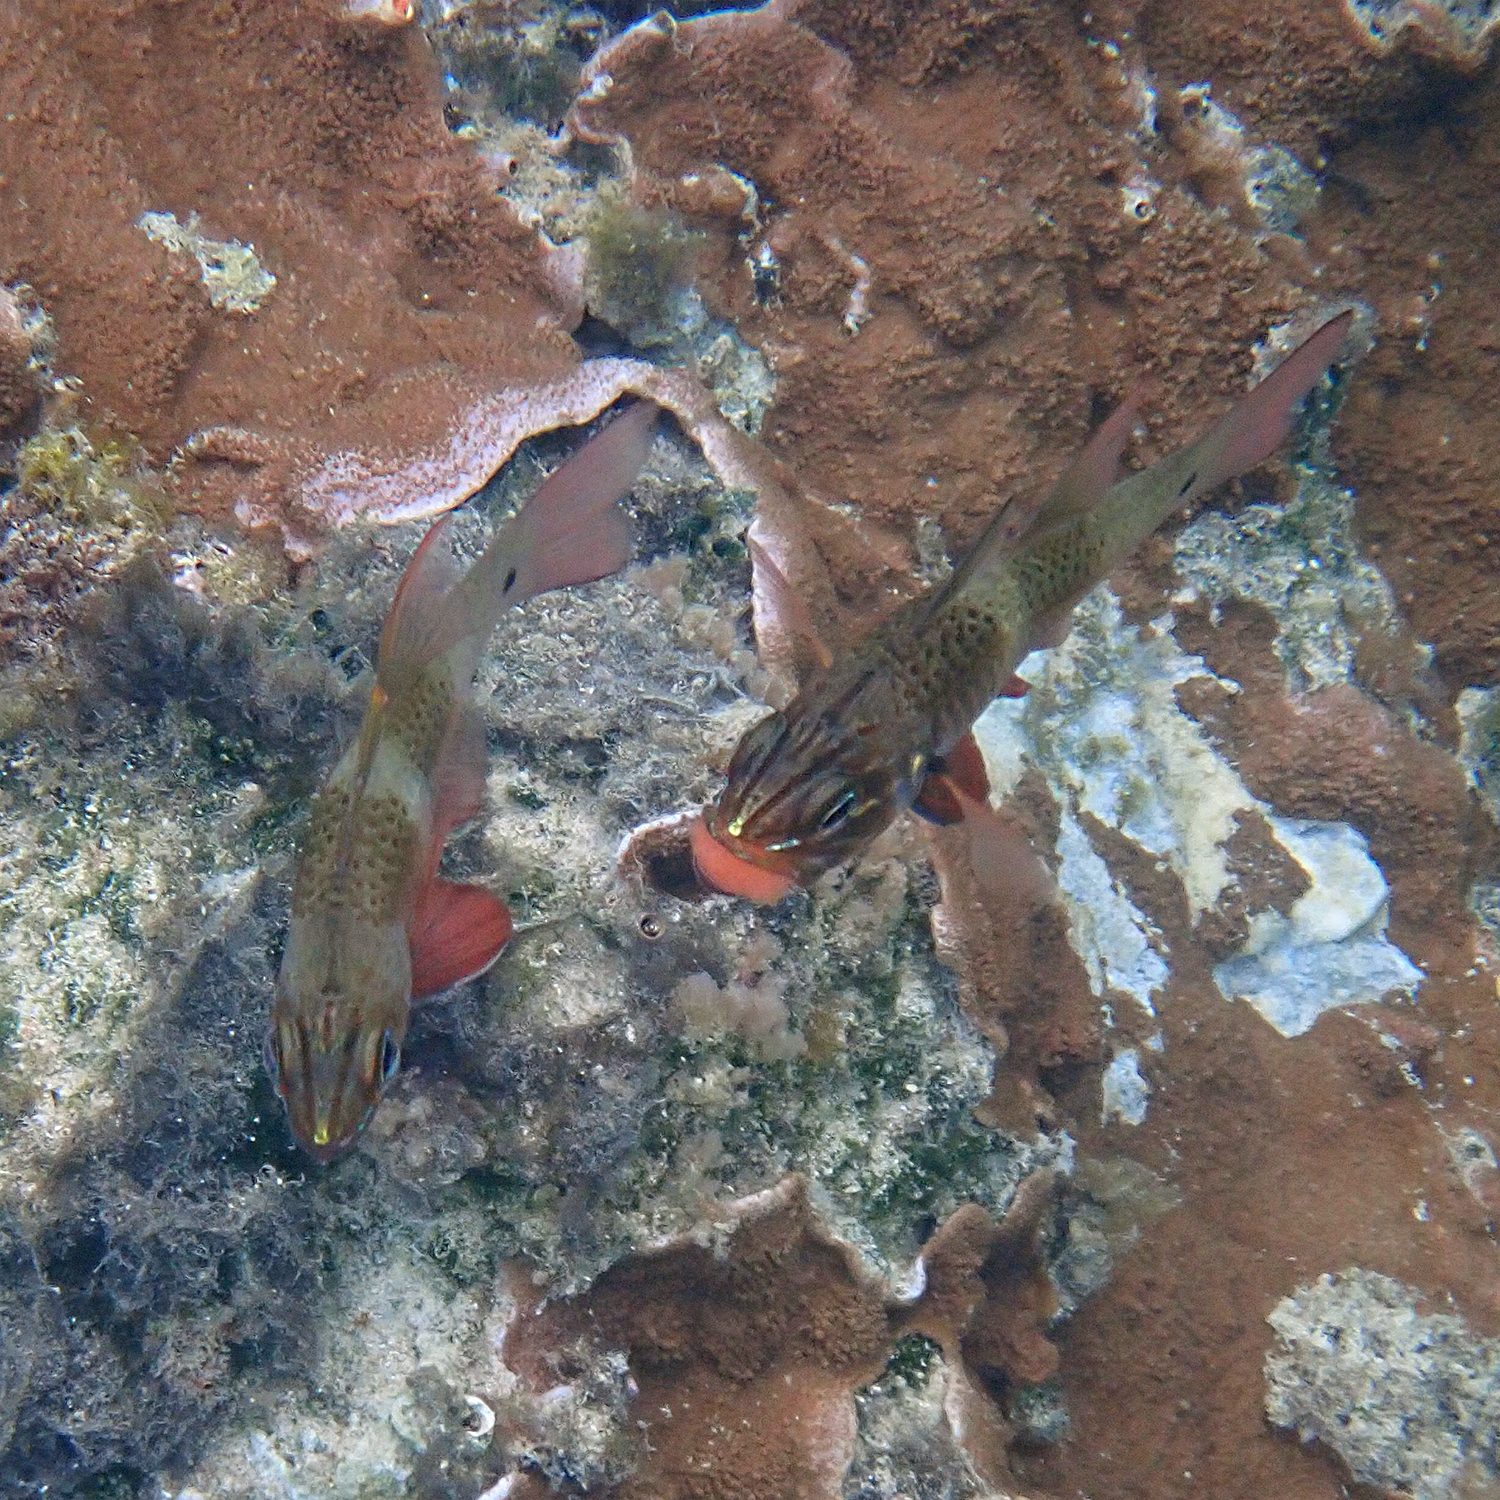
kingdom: Animalia
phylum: Chordata
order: Perciformes
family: Apogonidae
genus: Ostorhinchus
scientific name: Ostorhinchus norfolcensis
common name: Norfolk cardinalfish
